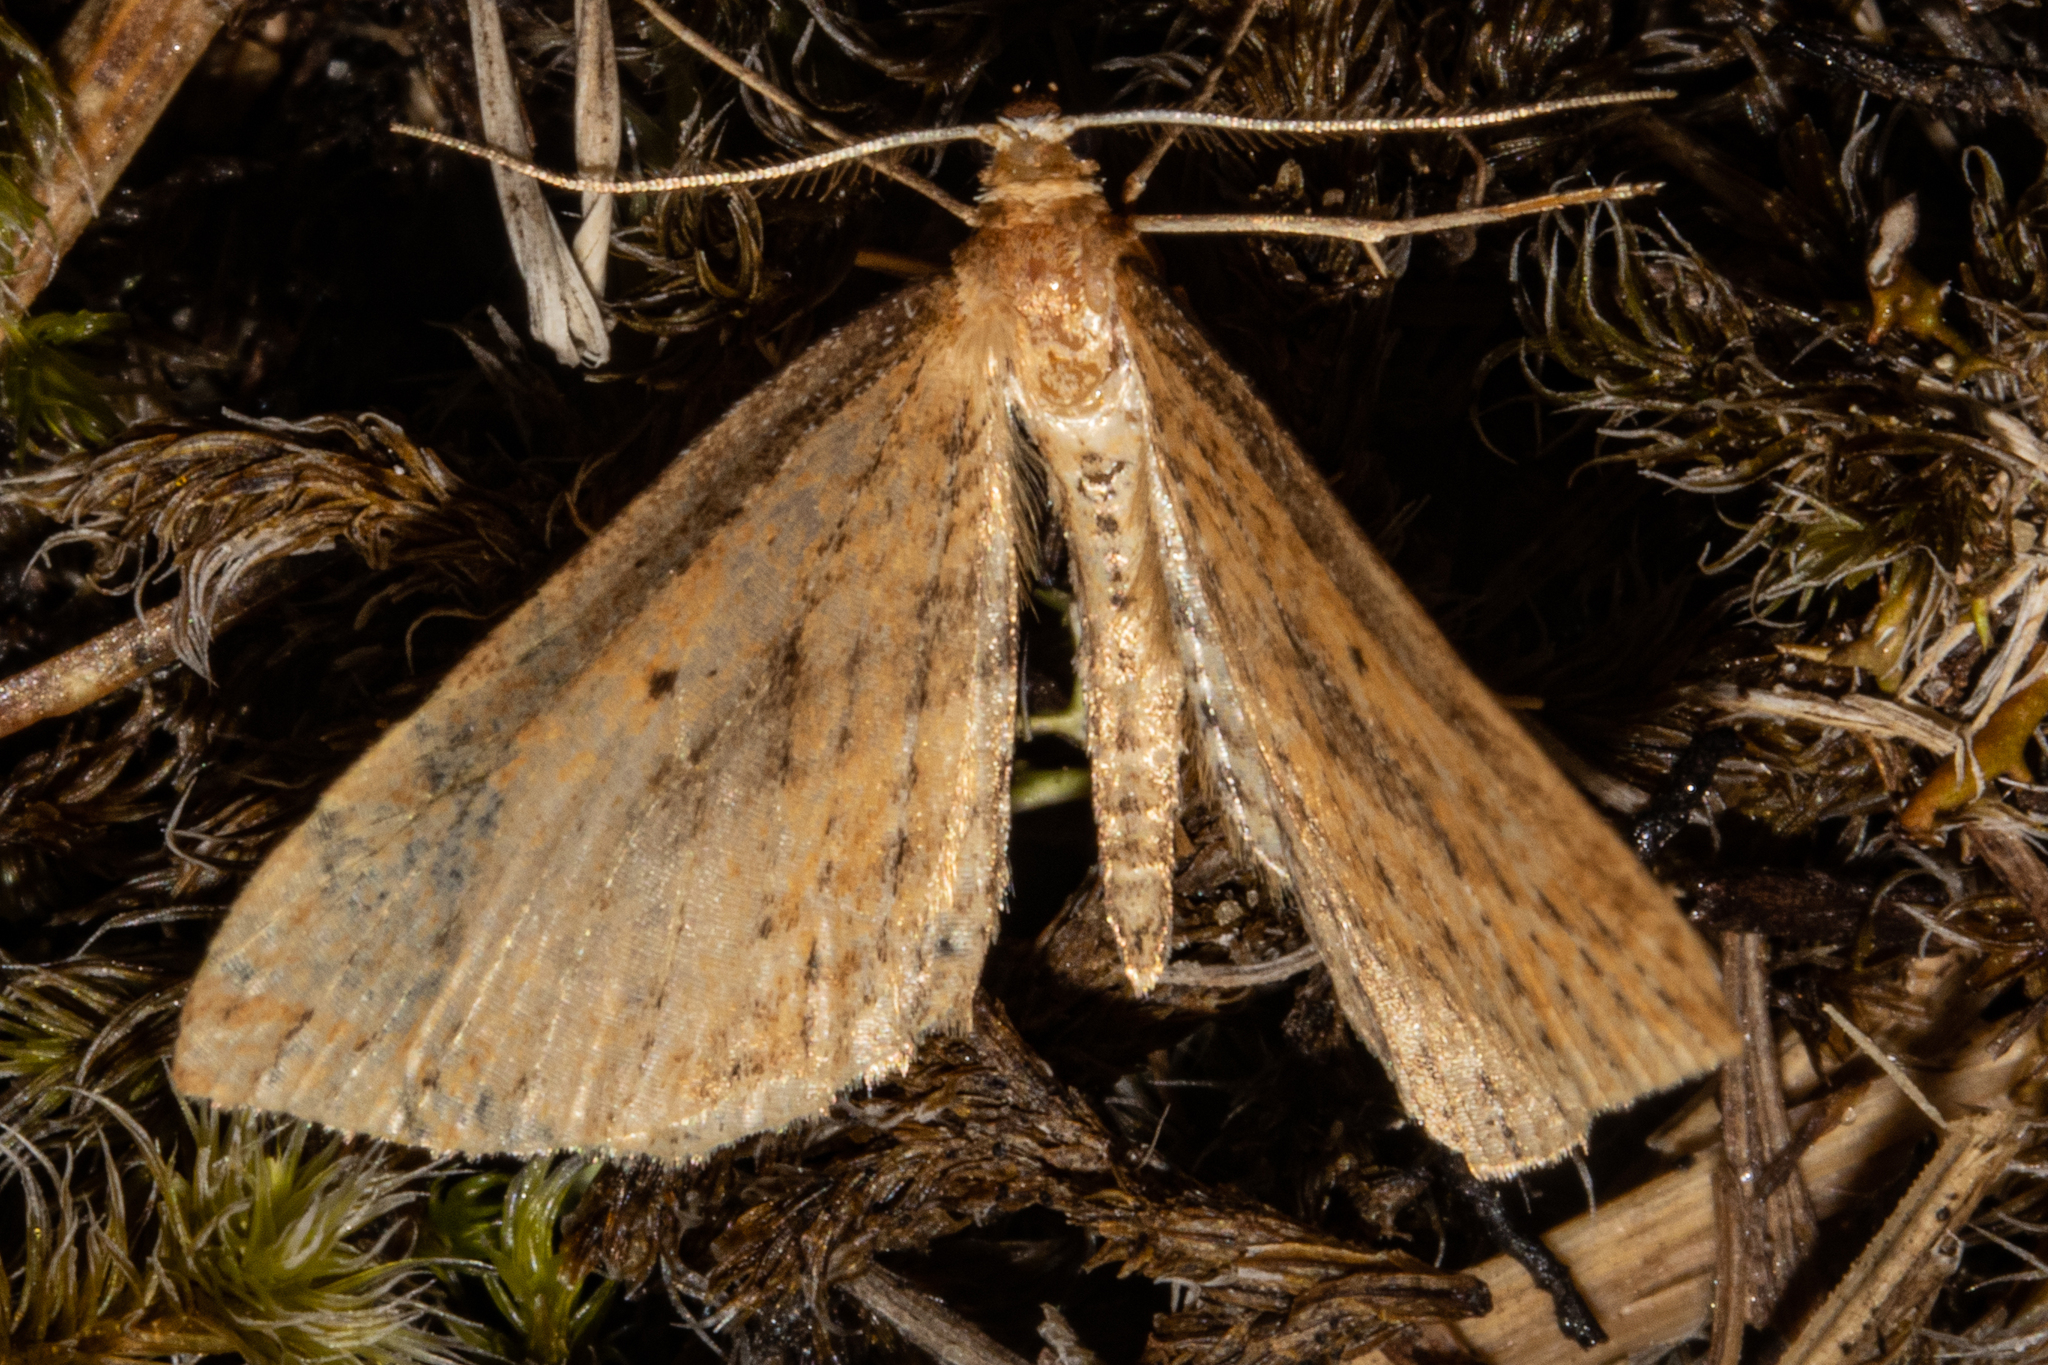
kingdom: Animalia
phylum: Arthropoda
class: Insecta
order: Lepidoptera
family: Geometridae
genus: Epiphryne
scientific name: Epiphryne charidema
